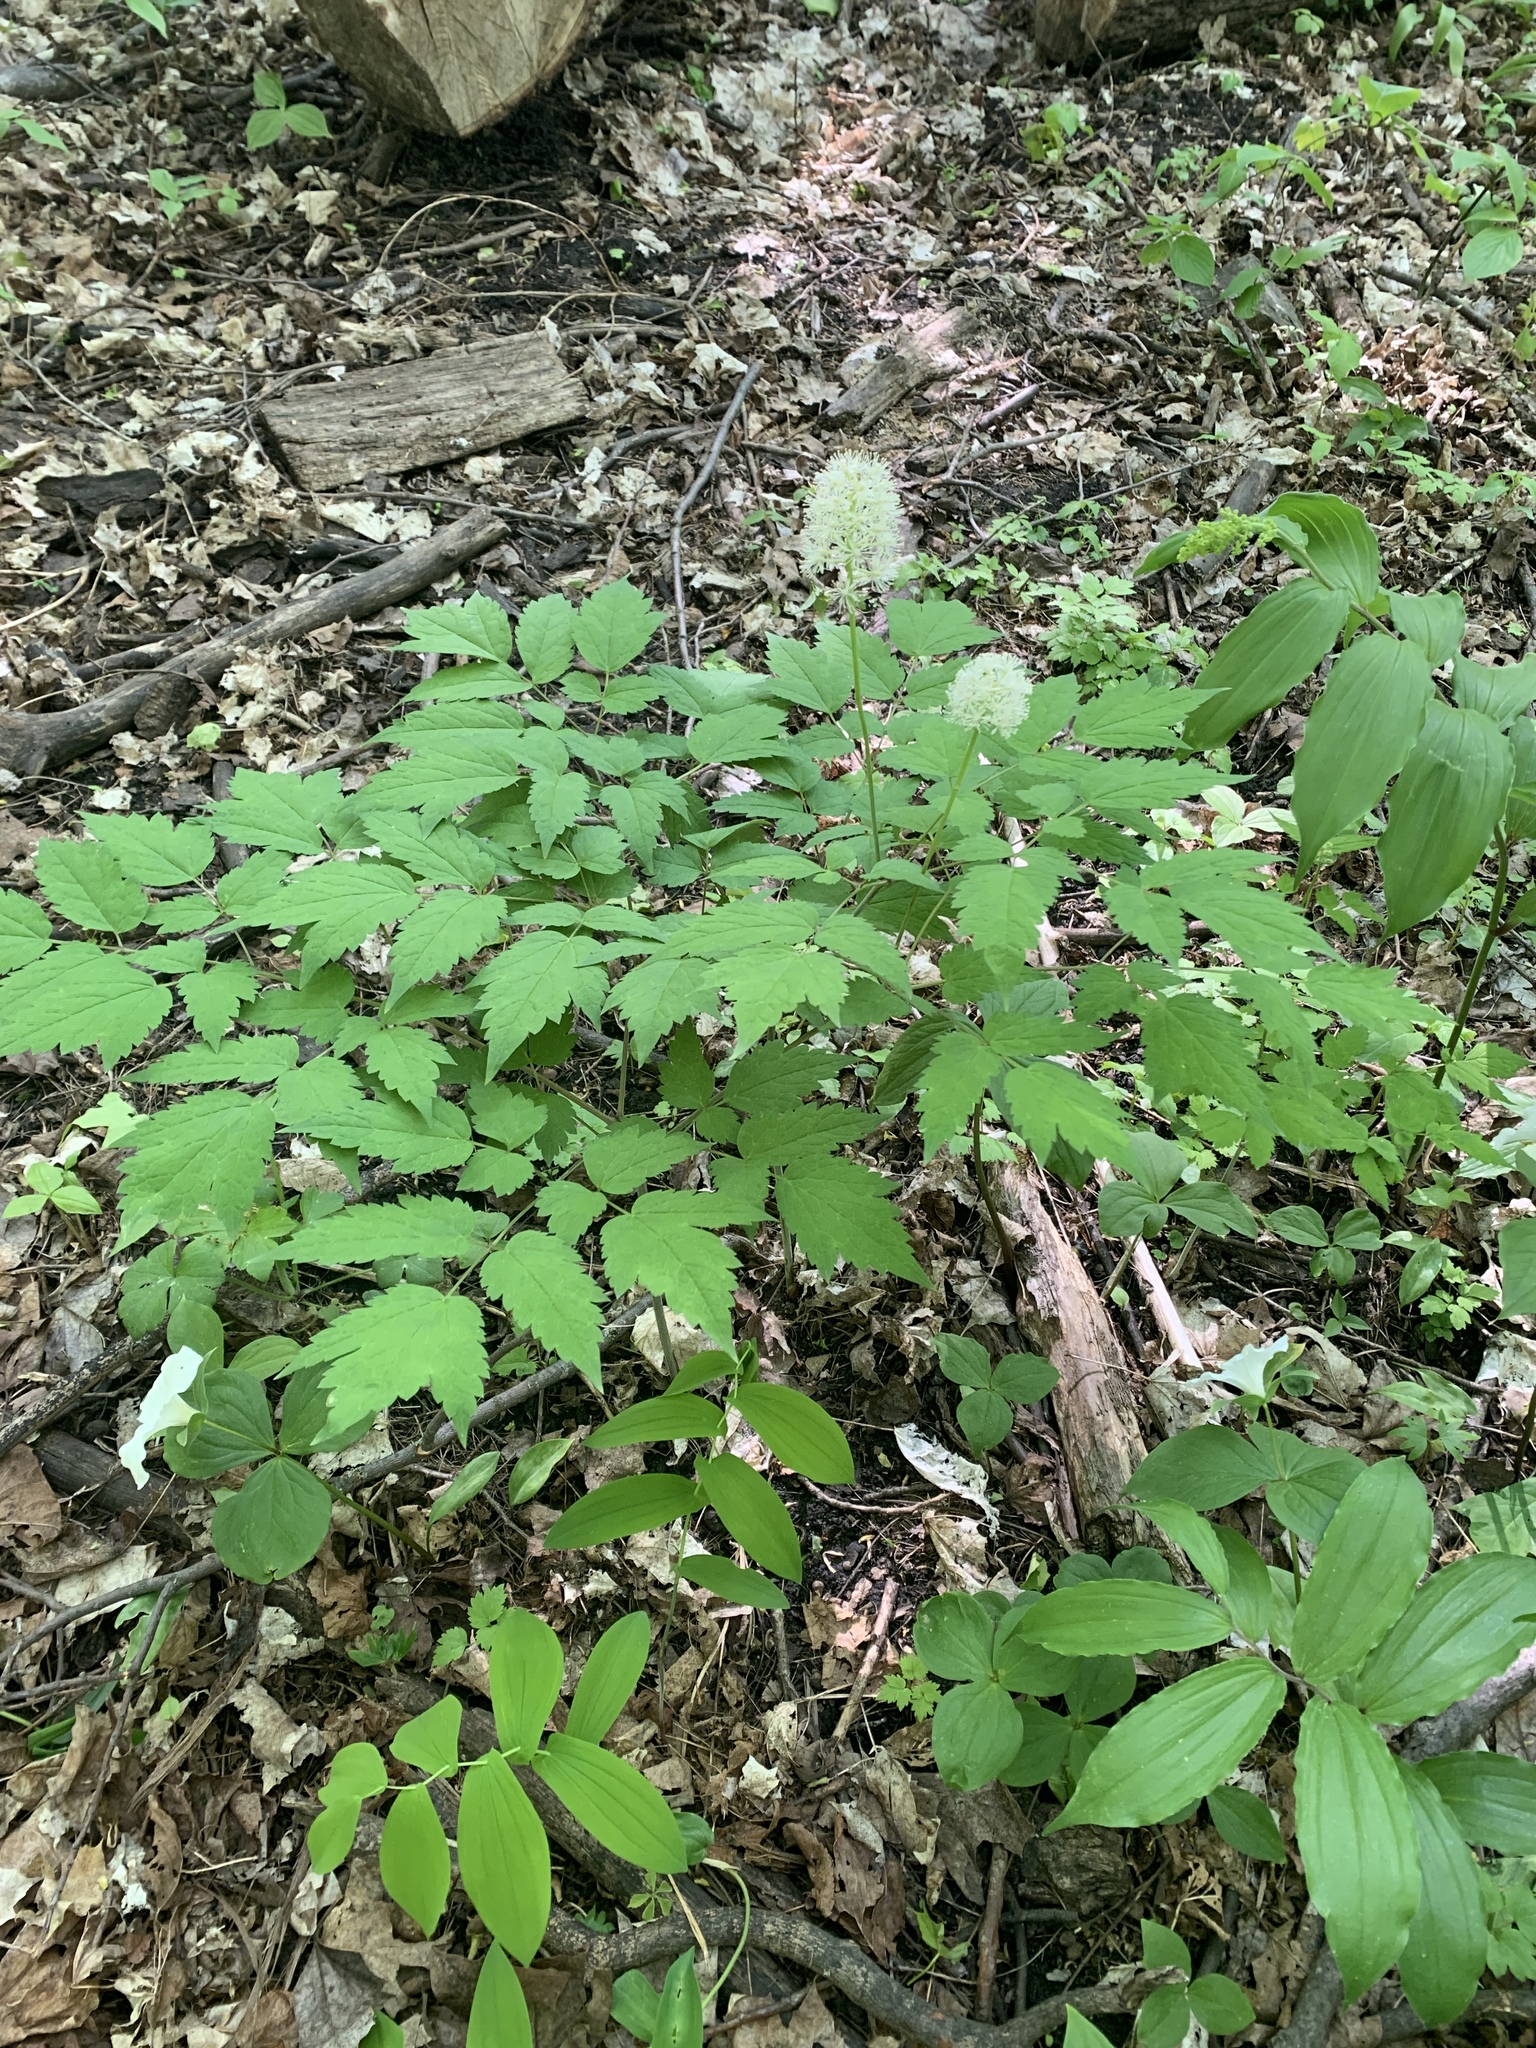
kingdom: Plantae
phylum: Tracheophyta
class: Magnoliopsida
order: Ranunculales
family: Ranunculaceae
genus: Actaea
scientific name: Actaea rubra
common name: Red baneberry
